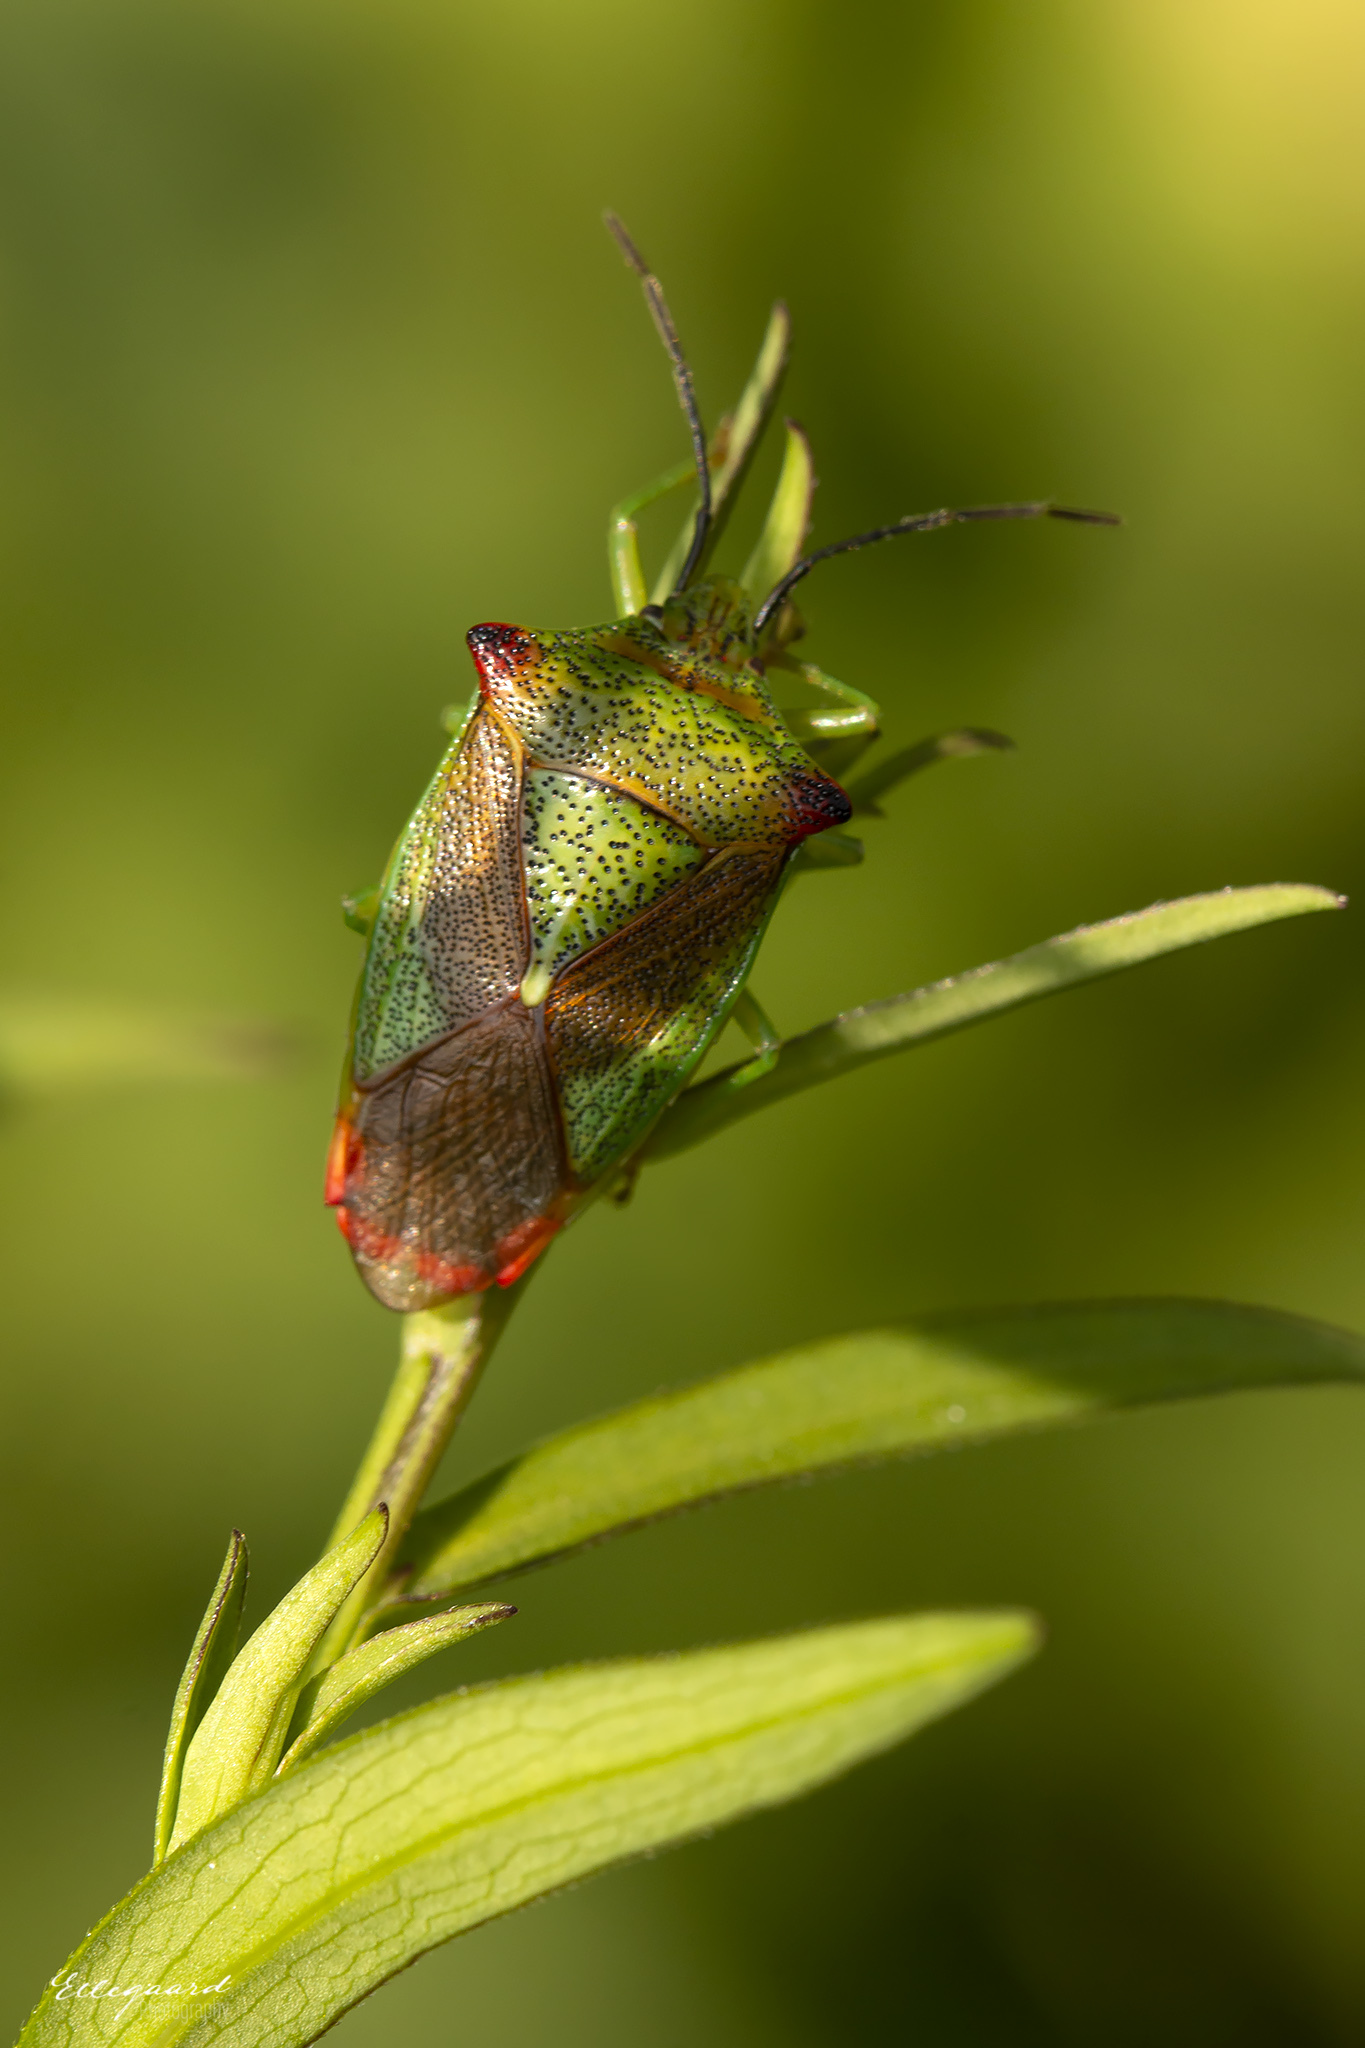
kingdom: Animalia
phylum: Arthropoda
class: Insecta
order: Hemiptera
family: Acanthosomatidae
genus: Acanthosoma
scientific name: Acanthosoma haemorrhoidale
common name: Hawthorn shieldbug
